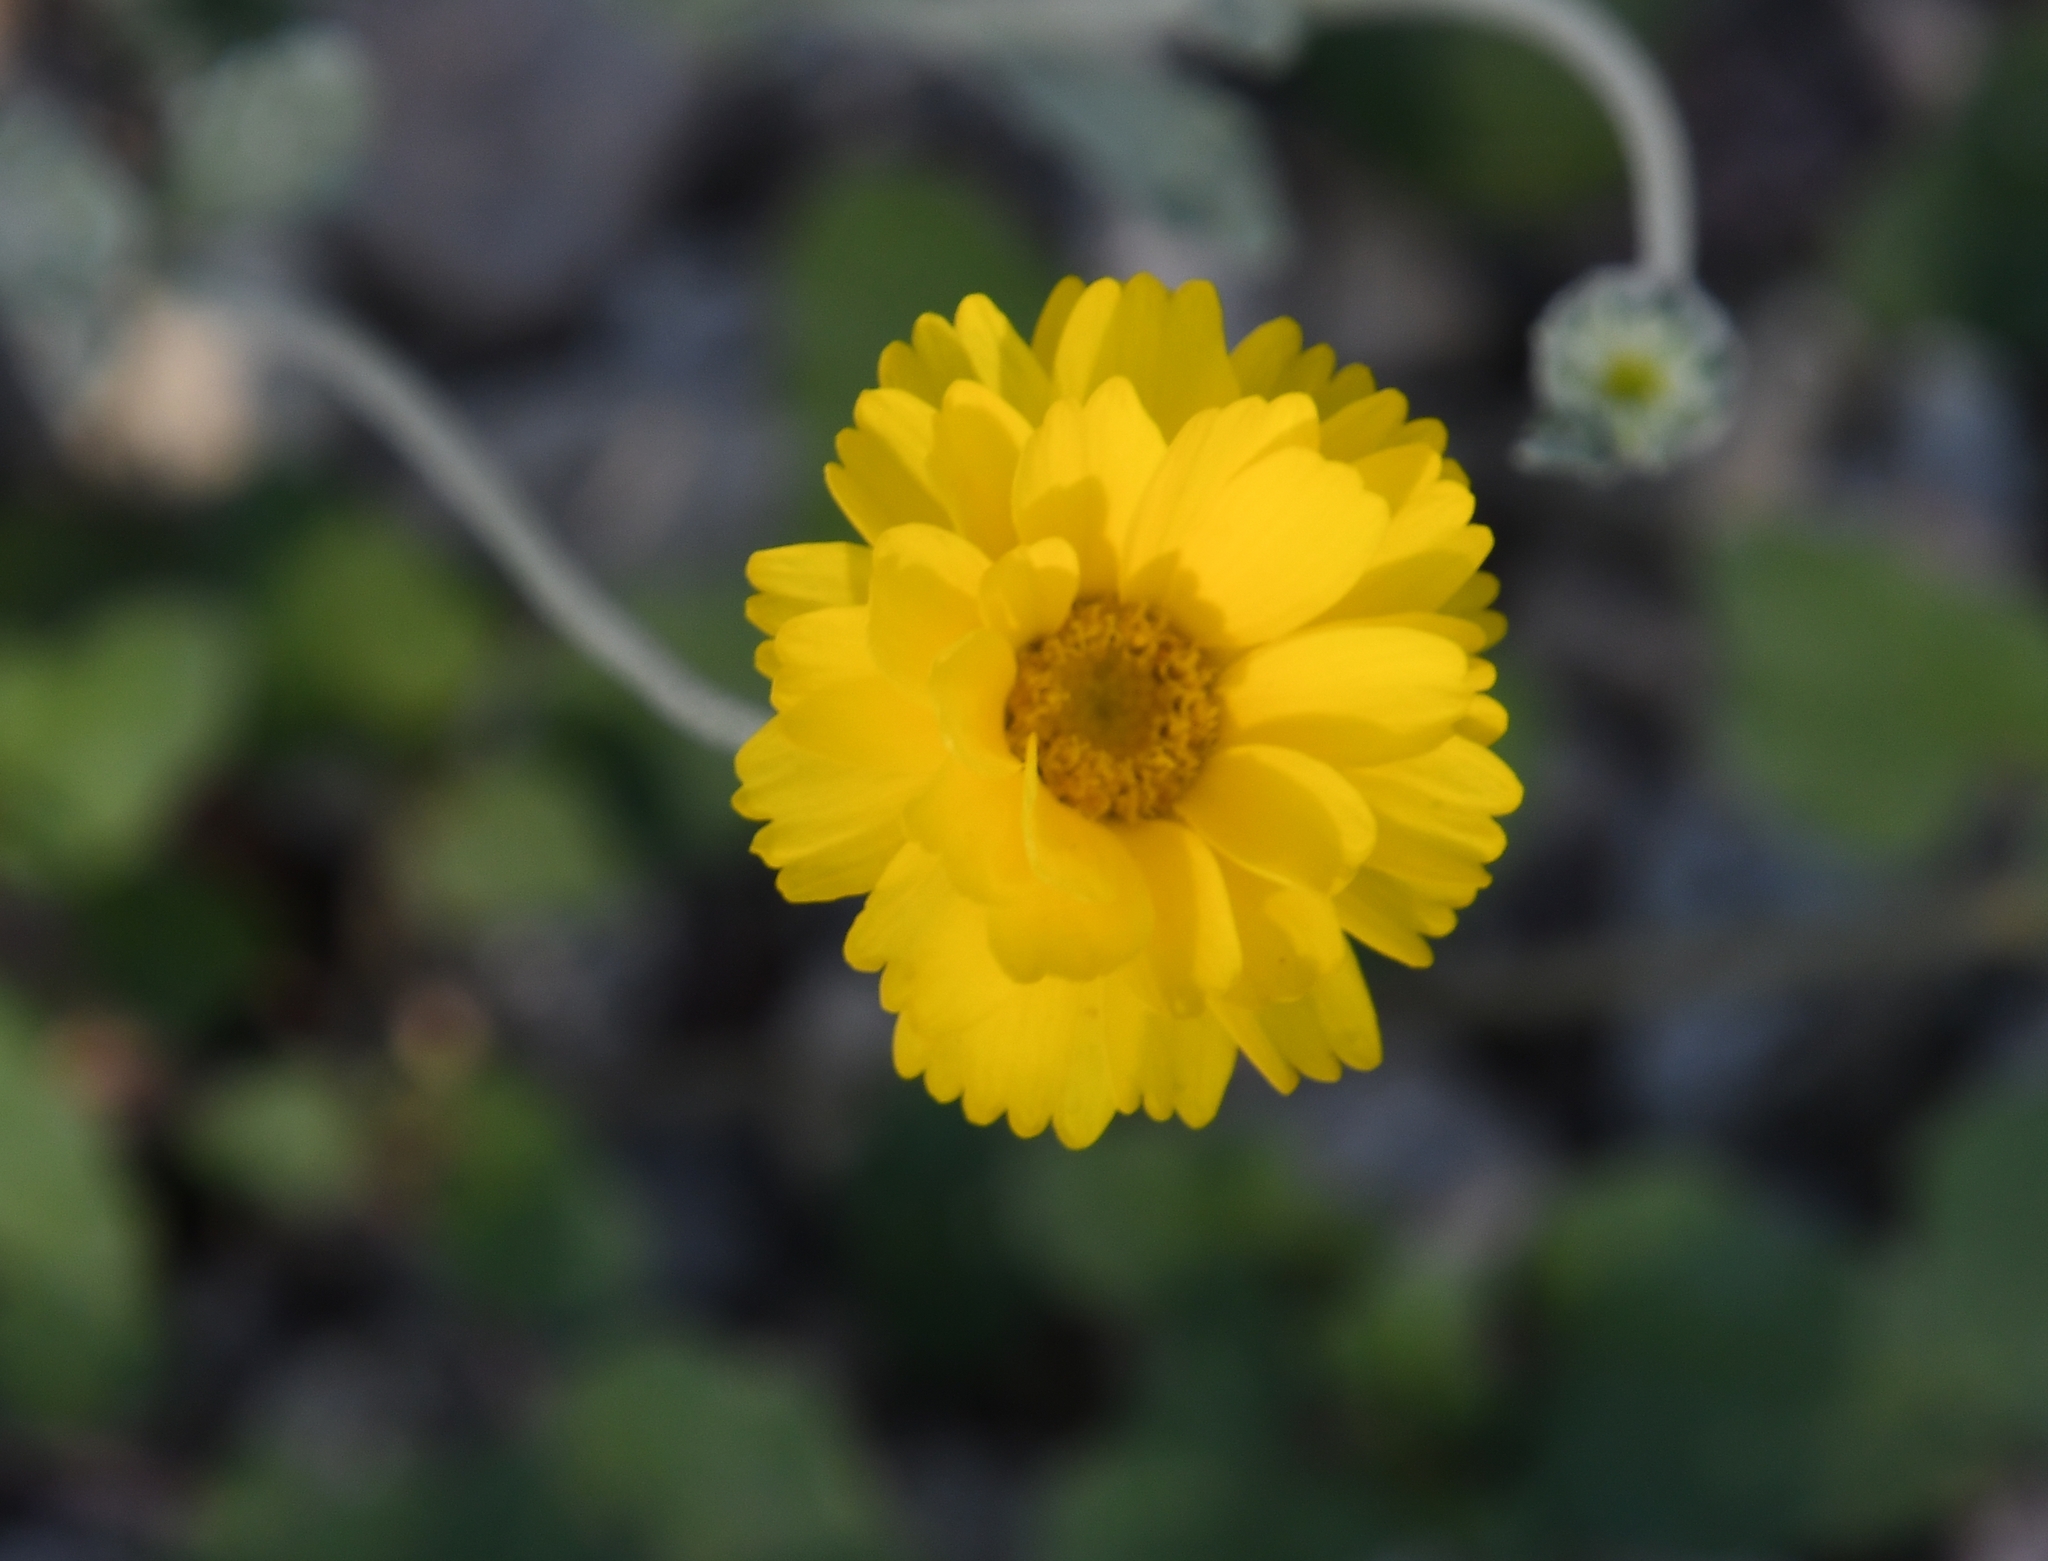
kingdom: Plantae
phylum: Tracheophyta
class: Magnoliopsida
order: Asterales
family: Asteraceae
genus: Baileya
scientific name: Baileya multiradiata
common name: Desert-marigold
